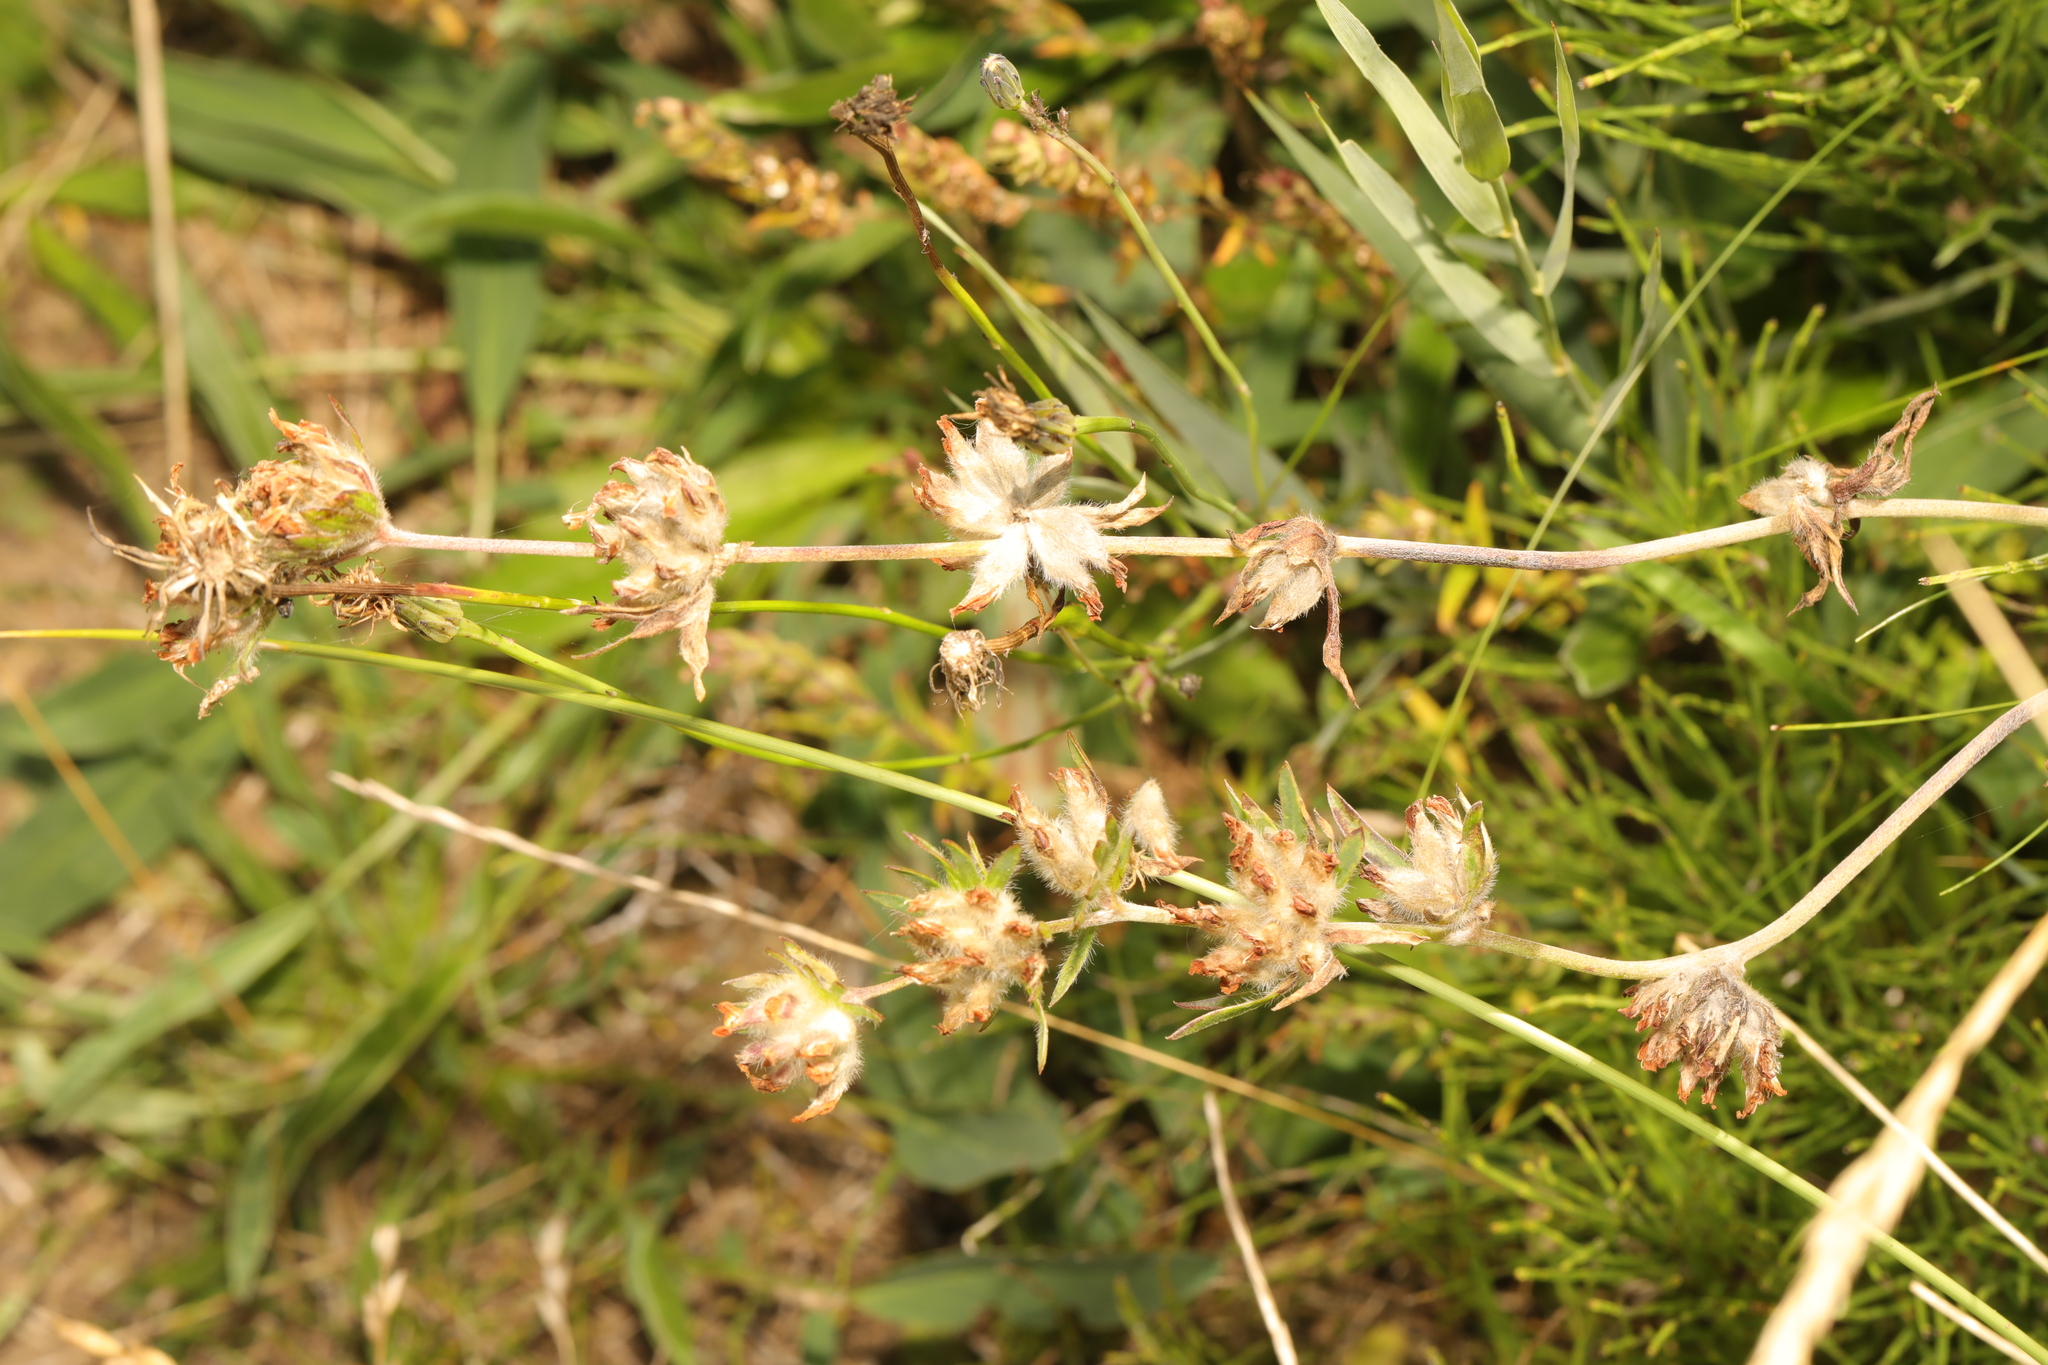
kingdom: Plantae
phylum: Tracheophyta
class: Magnoliopsida
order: Fabales
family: Fabaceae
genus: Anthyllis
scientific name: Anthyllis vulneraria
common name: Kidney vetch
